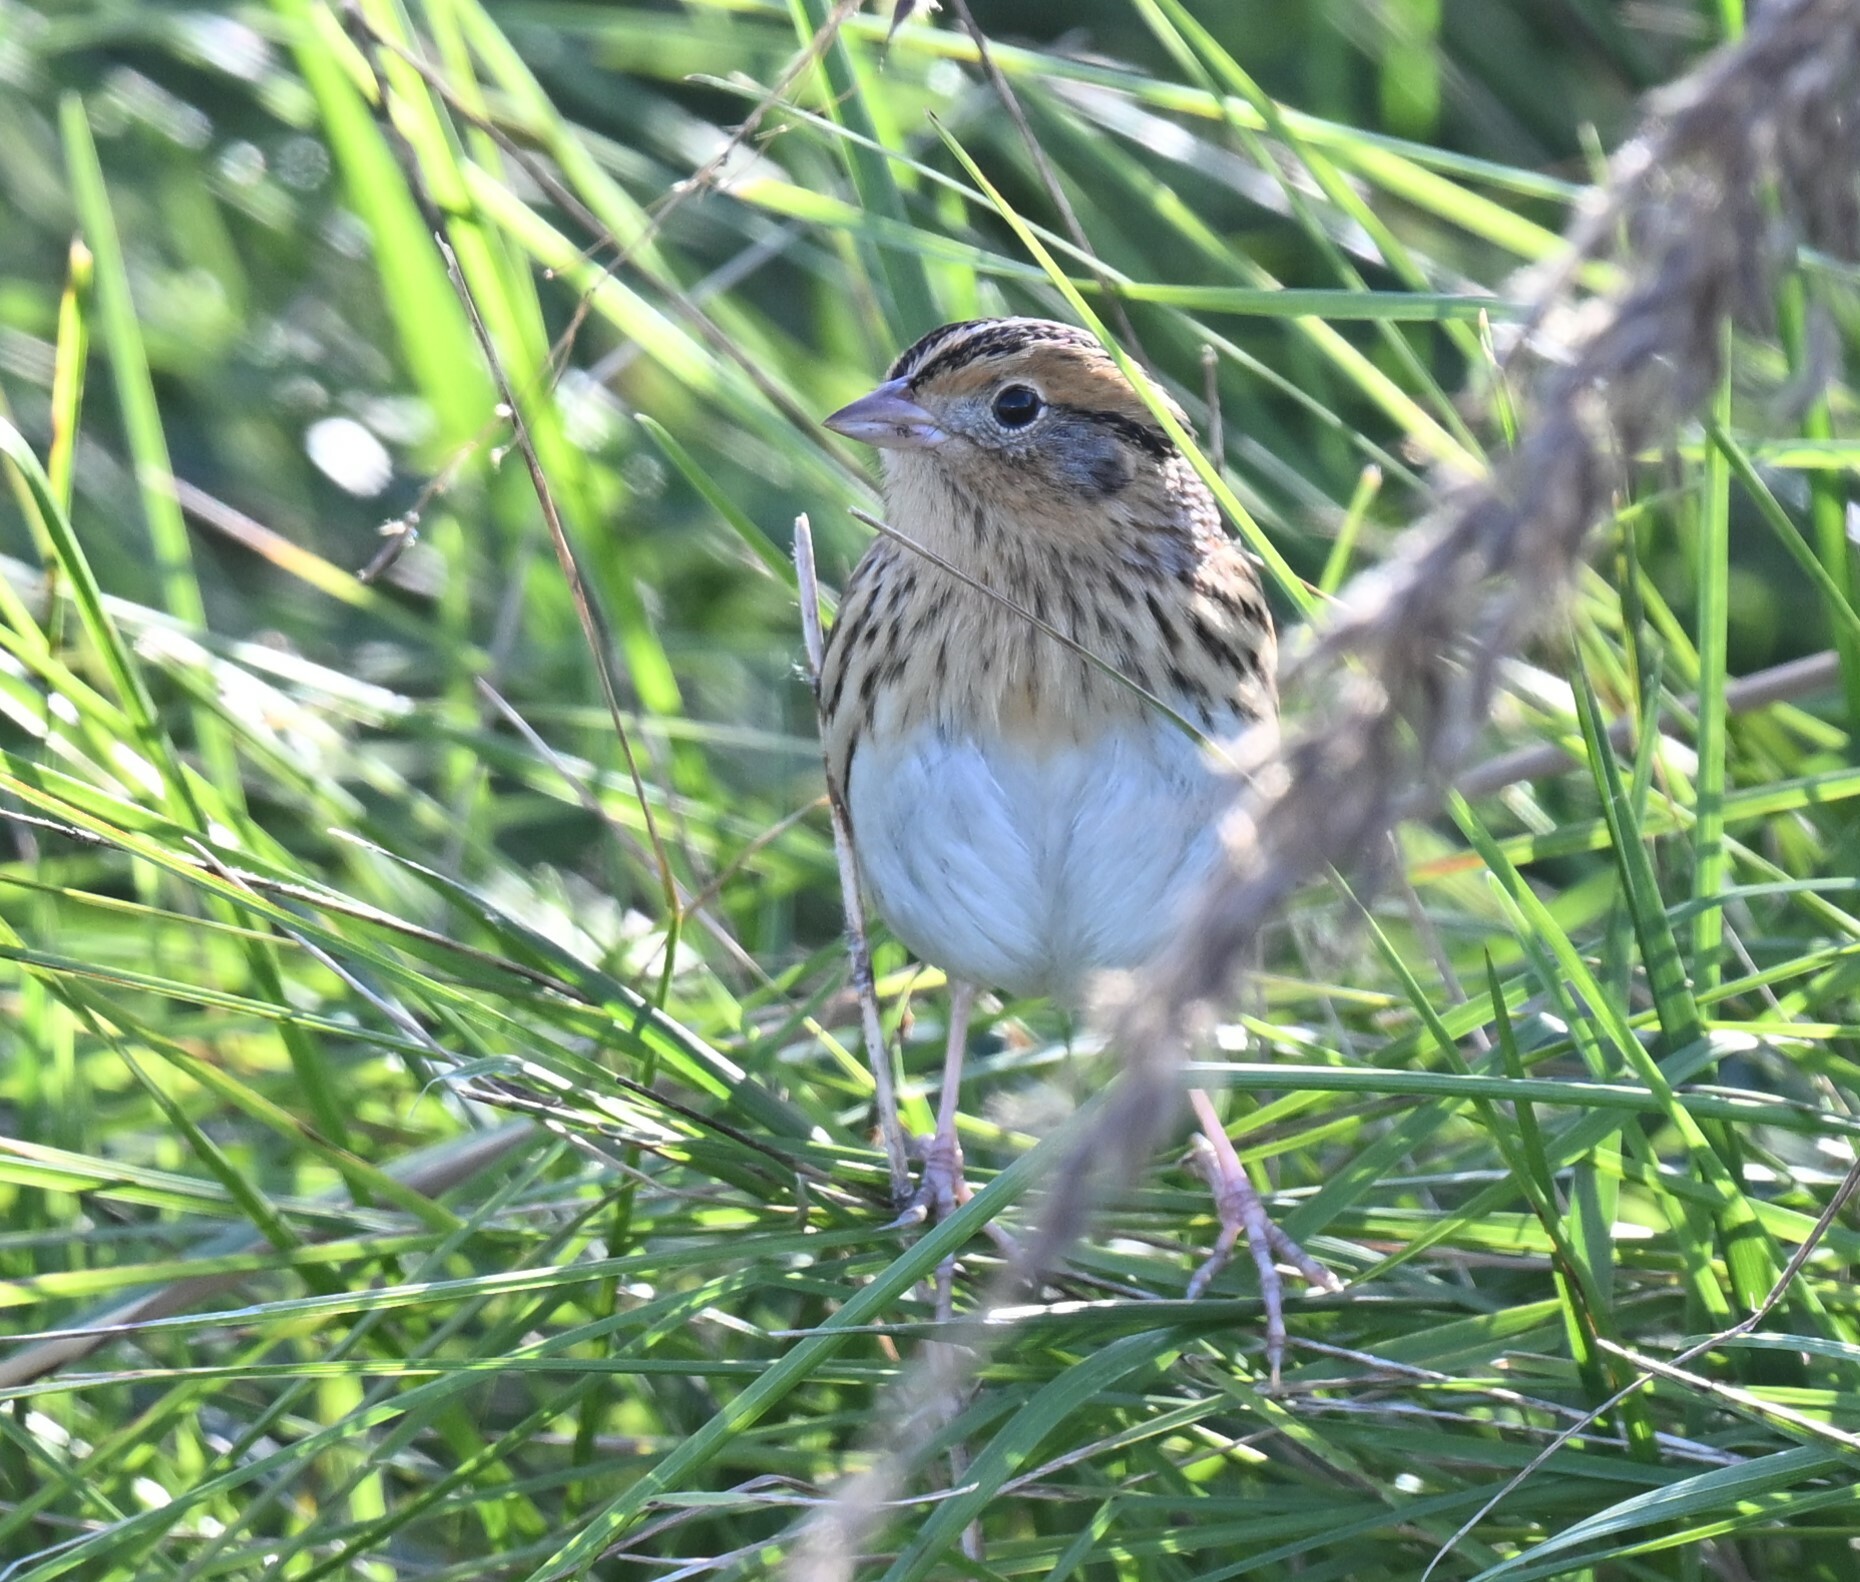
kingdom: Animalia
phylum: Chordata
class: Aves
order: Passeriformes
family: Passerellidae
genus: Ammospiza
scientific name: Ammospiza leconteii
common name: Le conte's sparrow
